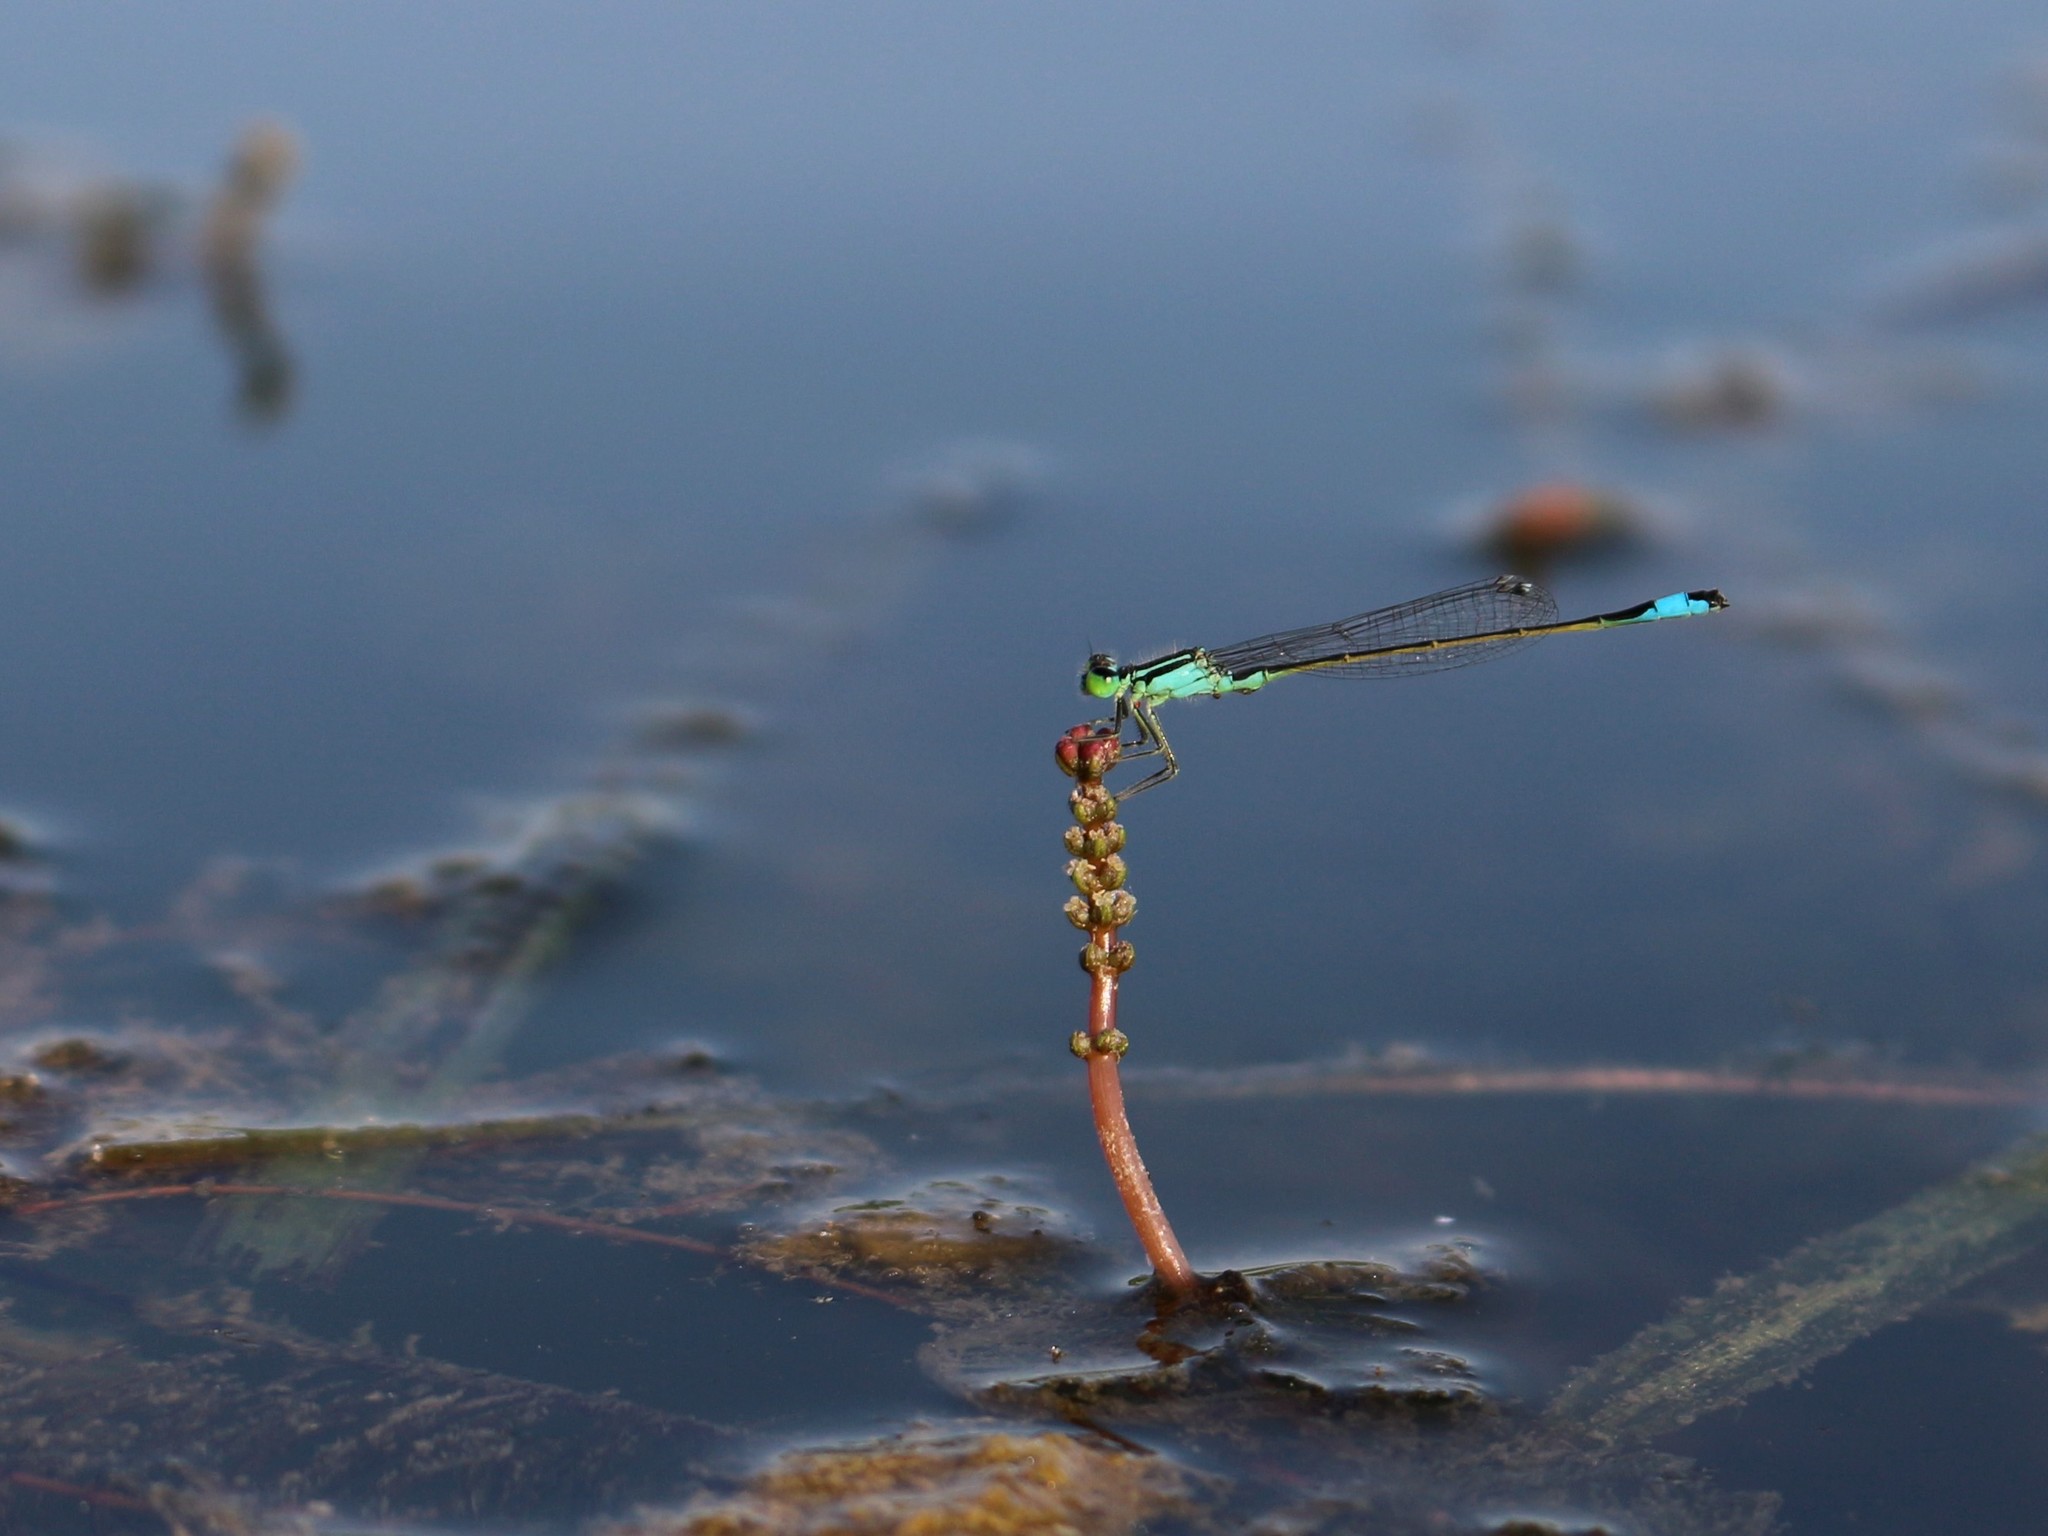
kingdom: Plantae
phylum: Tracheophyta
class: Magnoliopsida
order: Saxifragales
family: Haloragaceae
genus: Myriophyllum
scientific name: Myriophyllum spicatum
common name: Spiked water-milfoil
